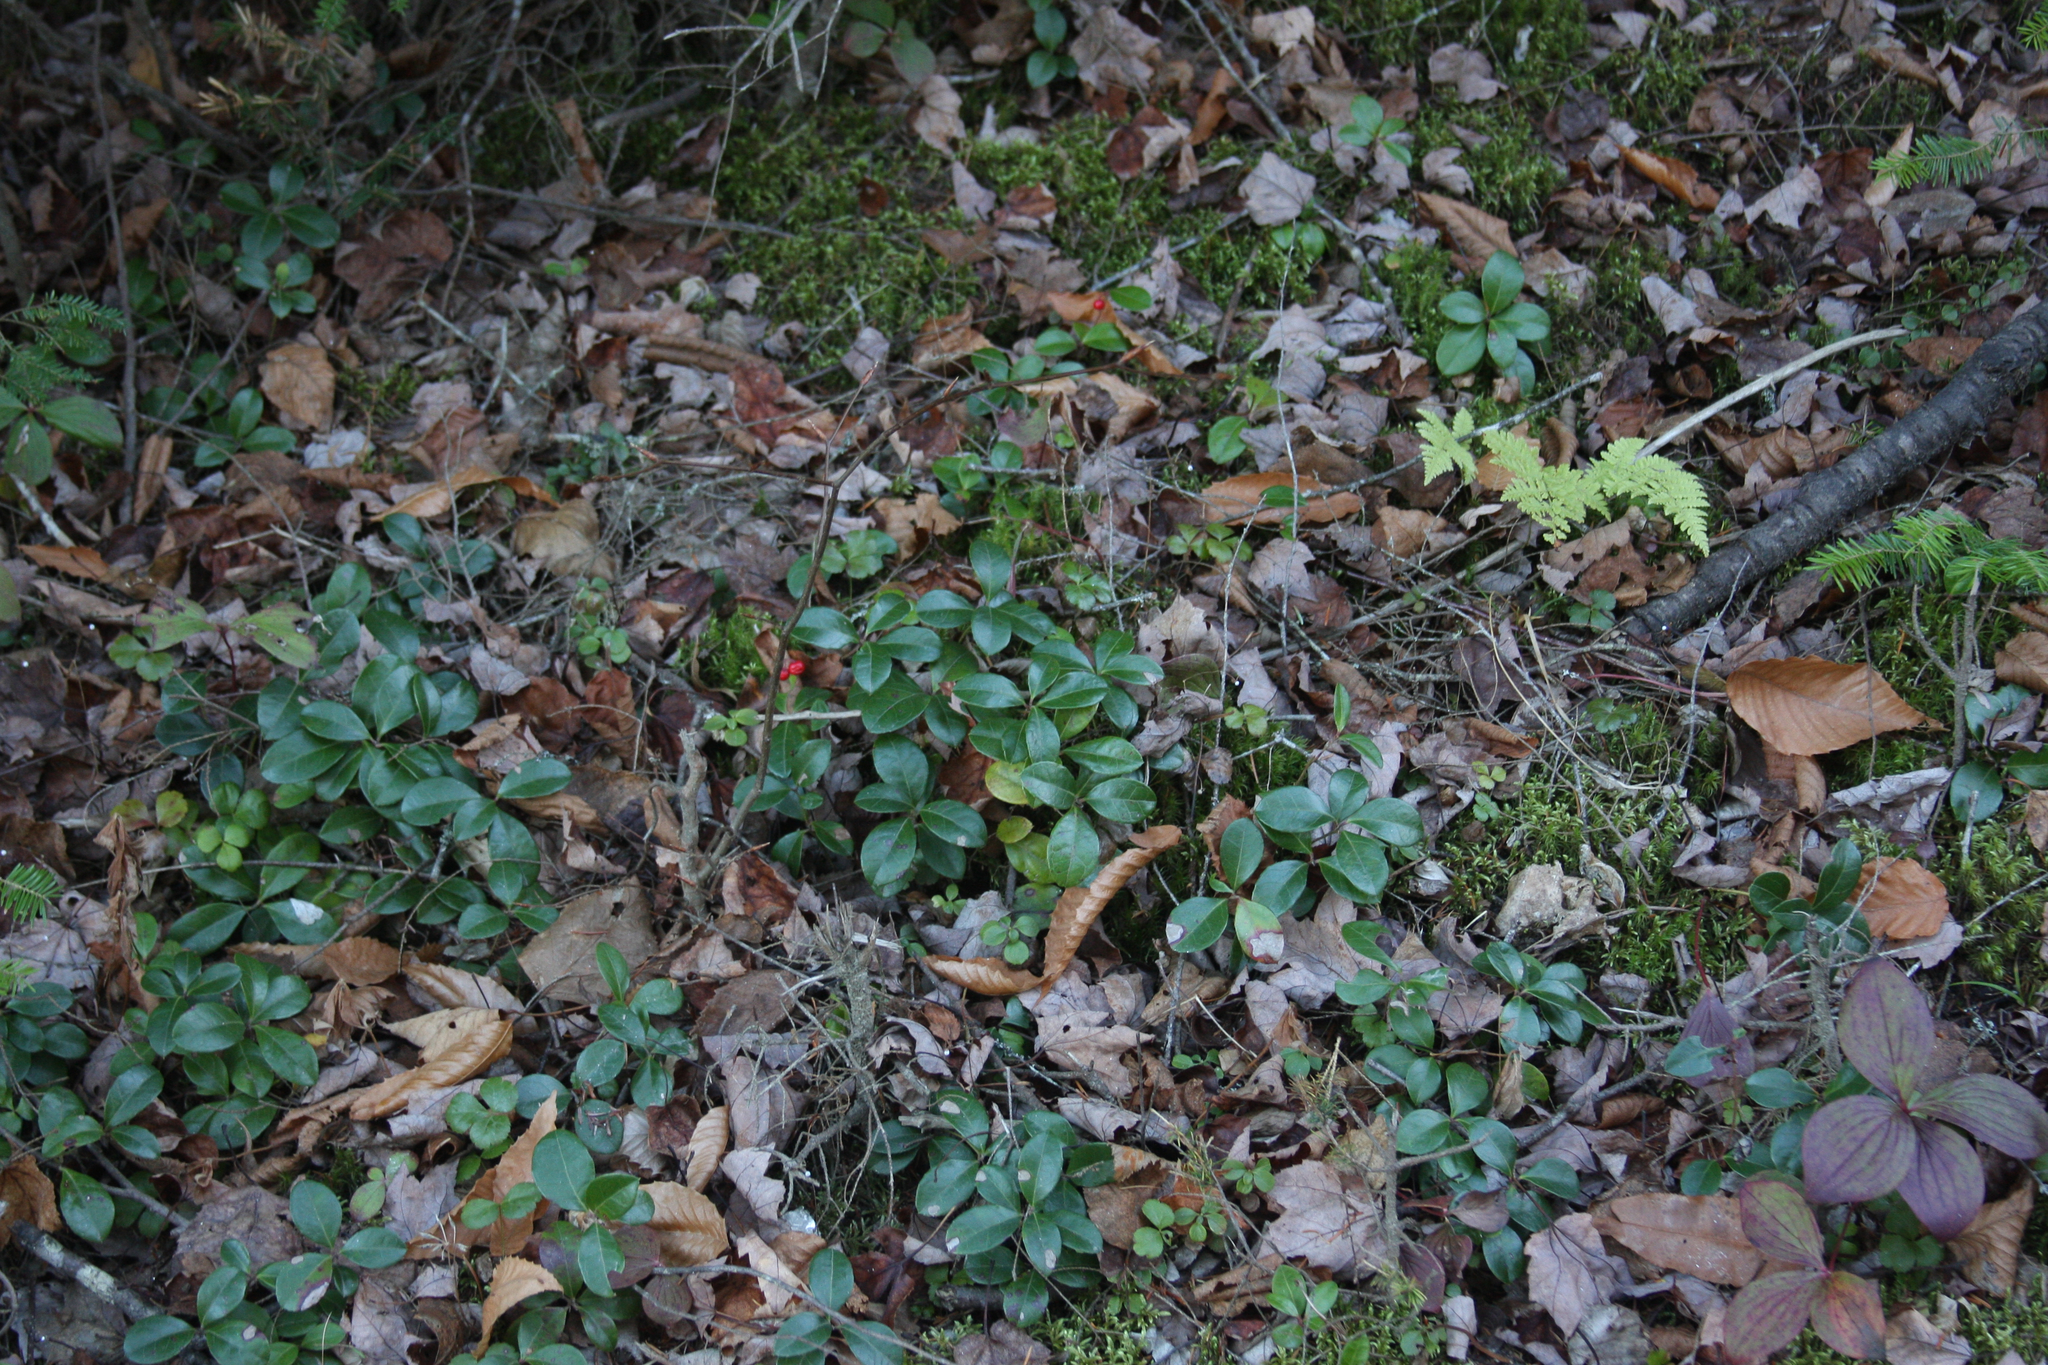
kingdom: Plantae
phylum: Tracheophyta
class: Magnoliopsida
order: Ericales
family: Ericaceae
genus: Gaultheria
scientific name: Gaultheria procumbens
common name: Checkerberry
